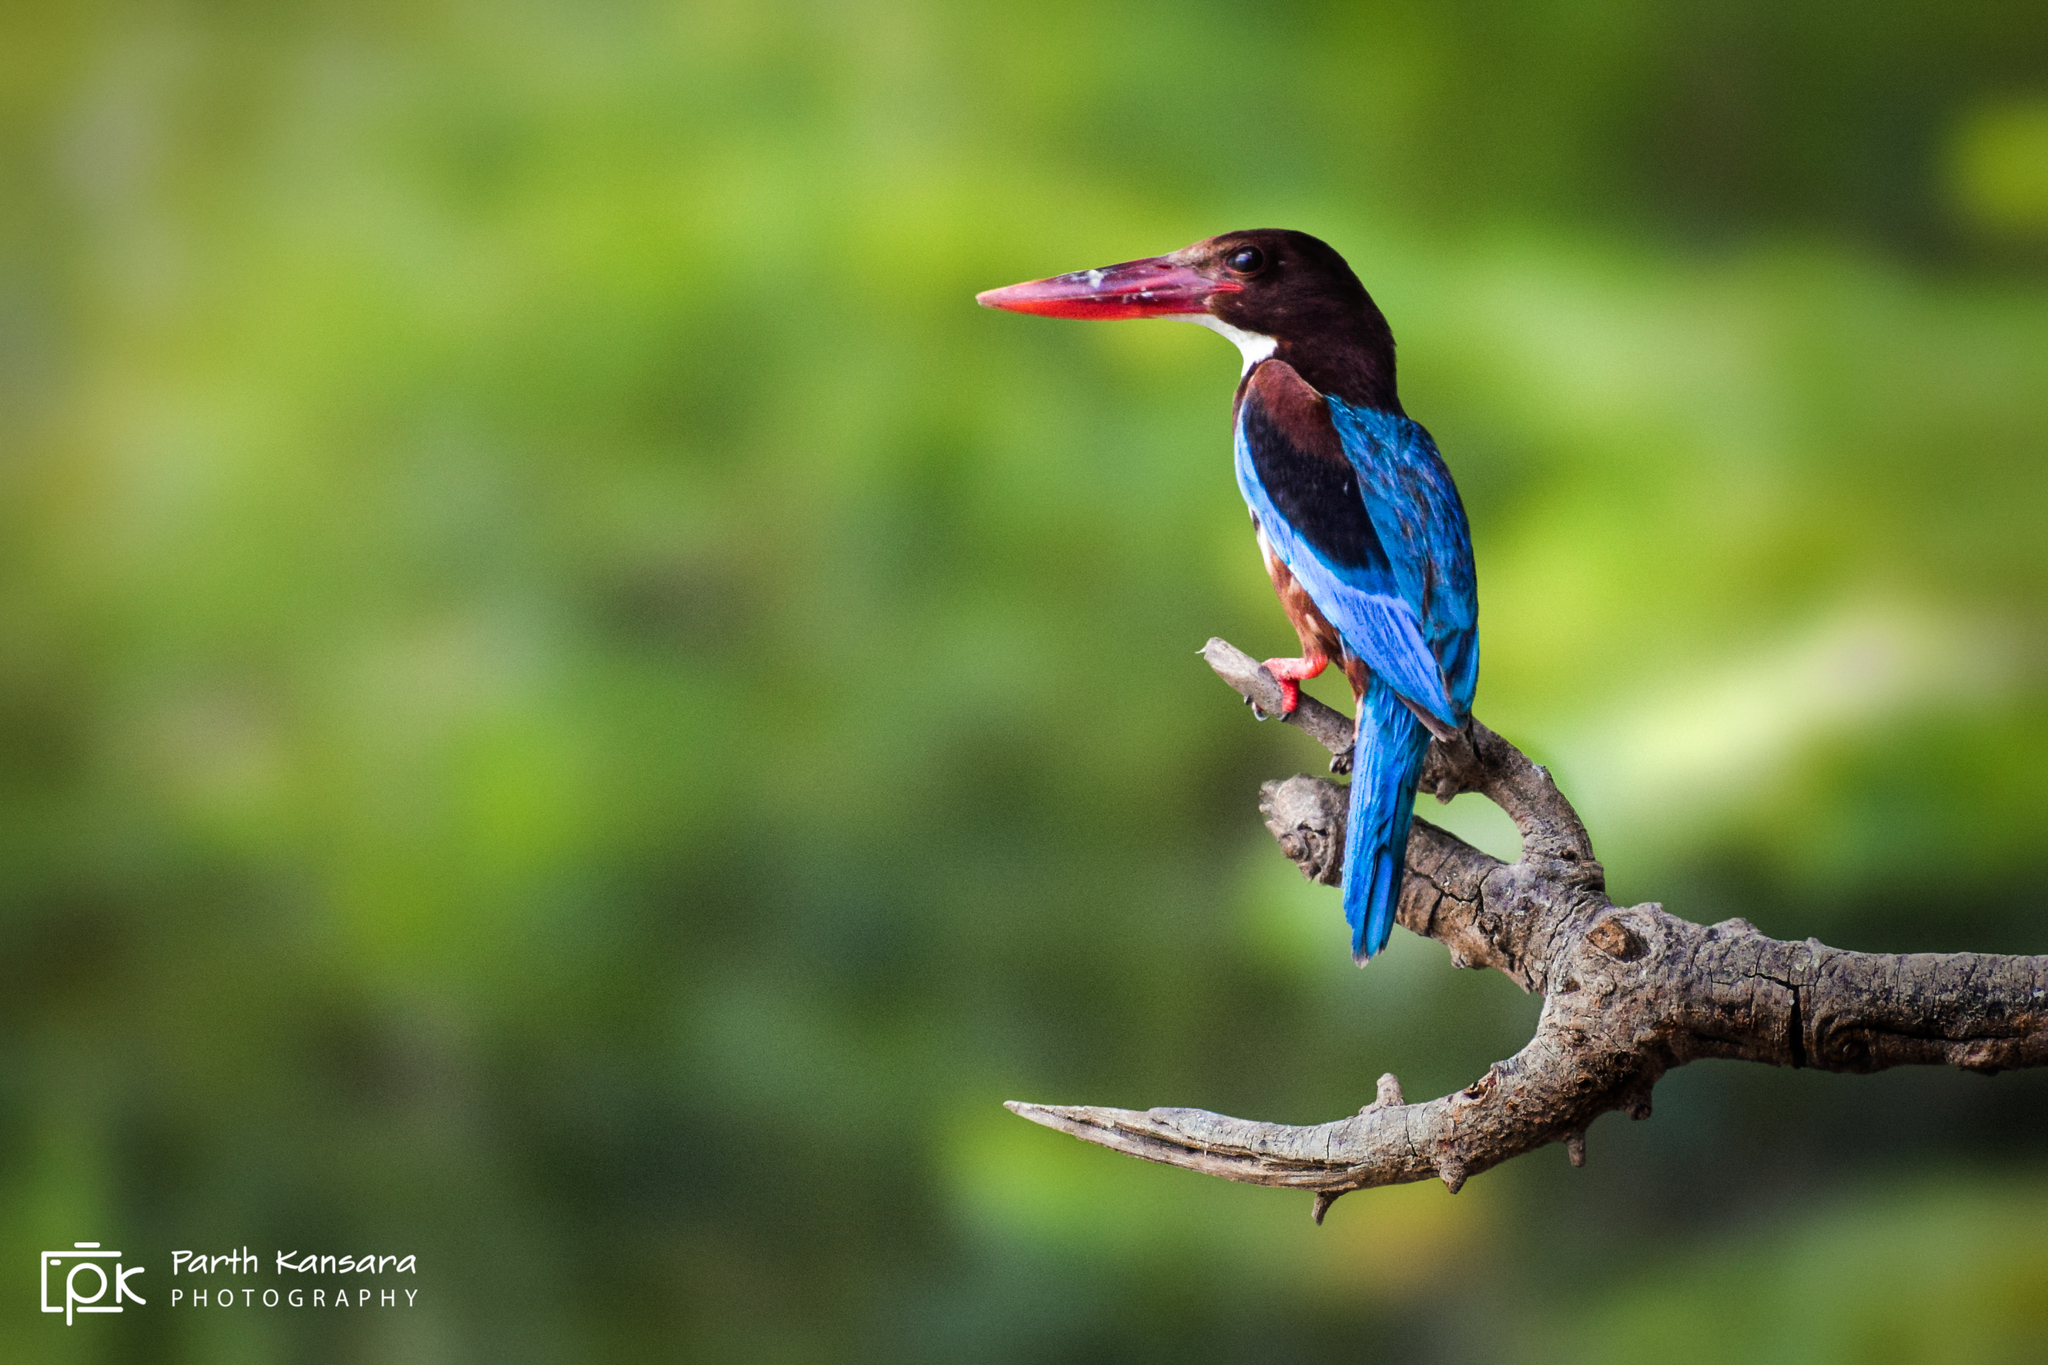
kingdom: Animalia
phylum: Chordata
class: Aves
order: Coraciiformes
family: Alcedinidae
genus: Halcyon
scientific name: Halcyon smyrnensis
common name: White-throated kingfisher
